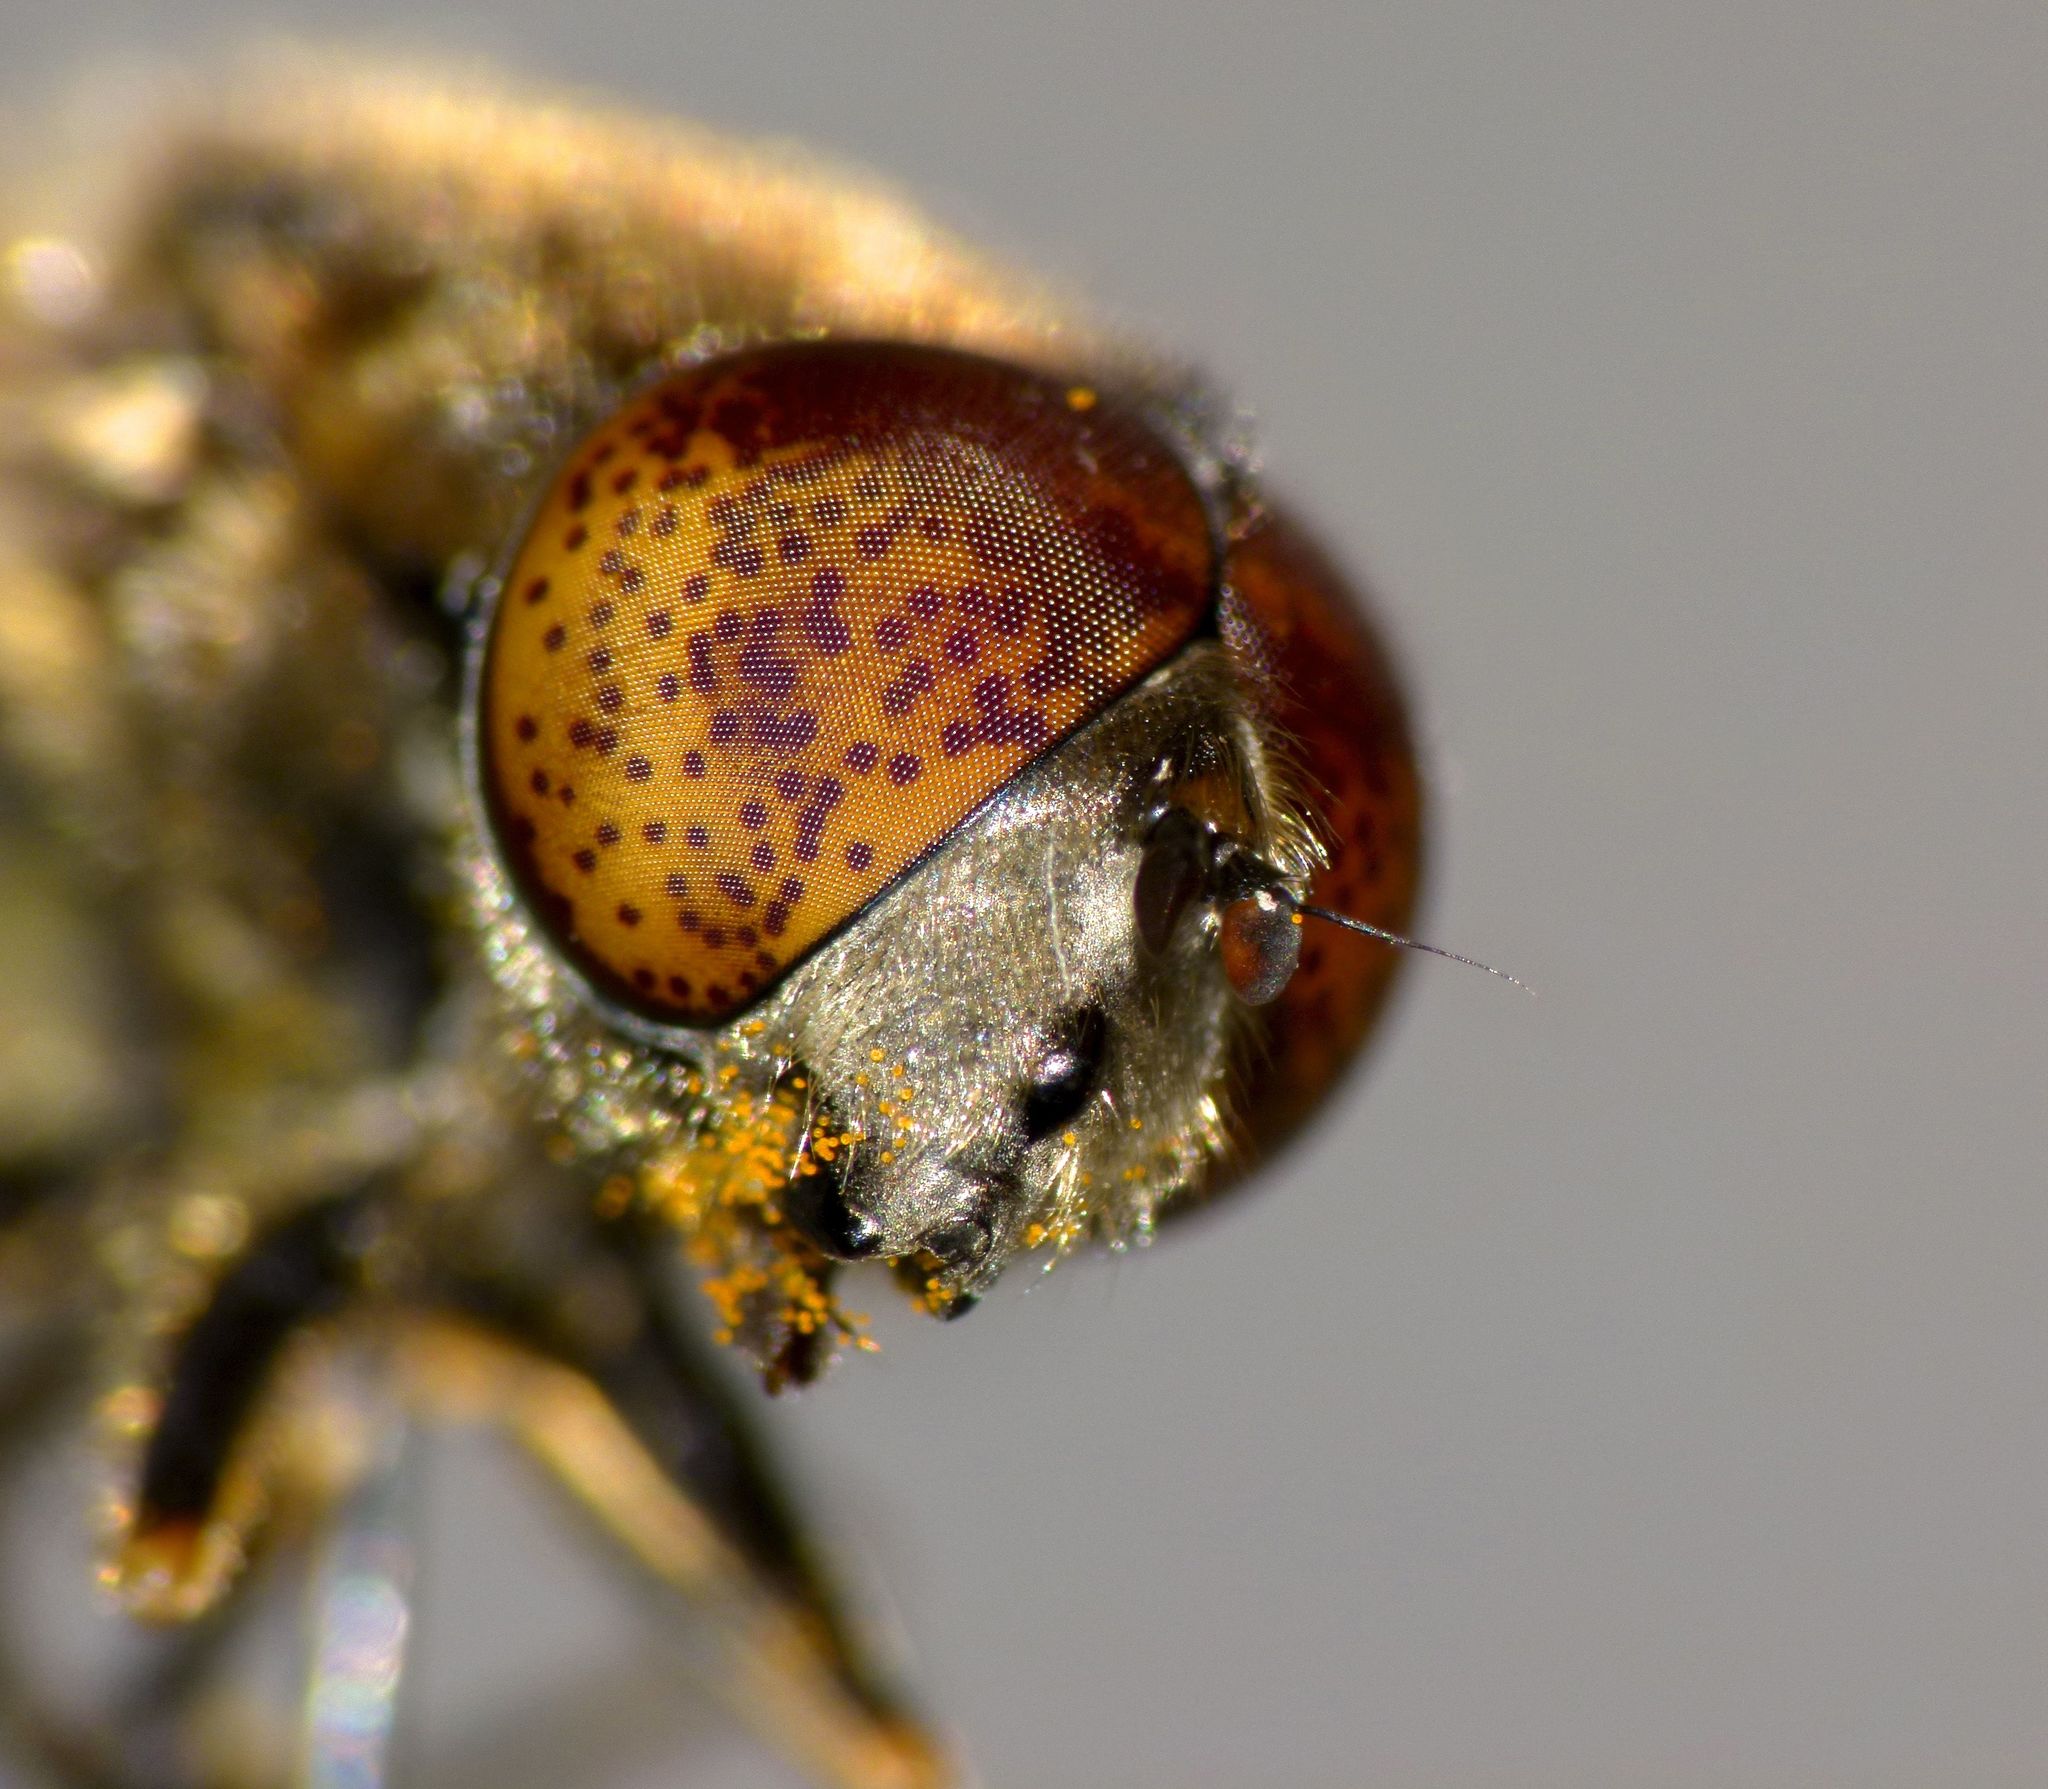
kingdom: Animalia
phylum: Arthropoda
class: Insecta
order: Diptera
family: Syrphidae
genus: Eristalinus
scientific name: Eristalinus aeneus
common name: Syrphid fly
